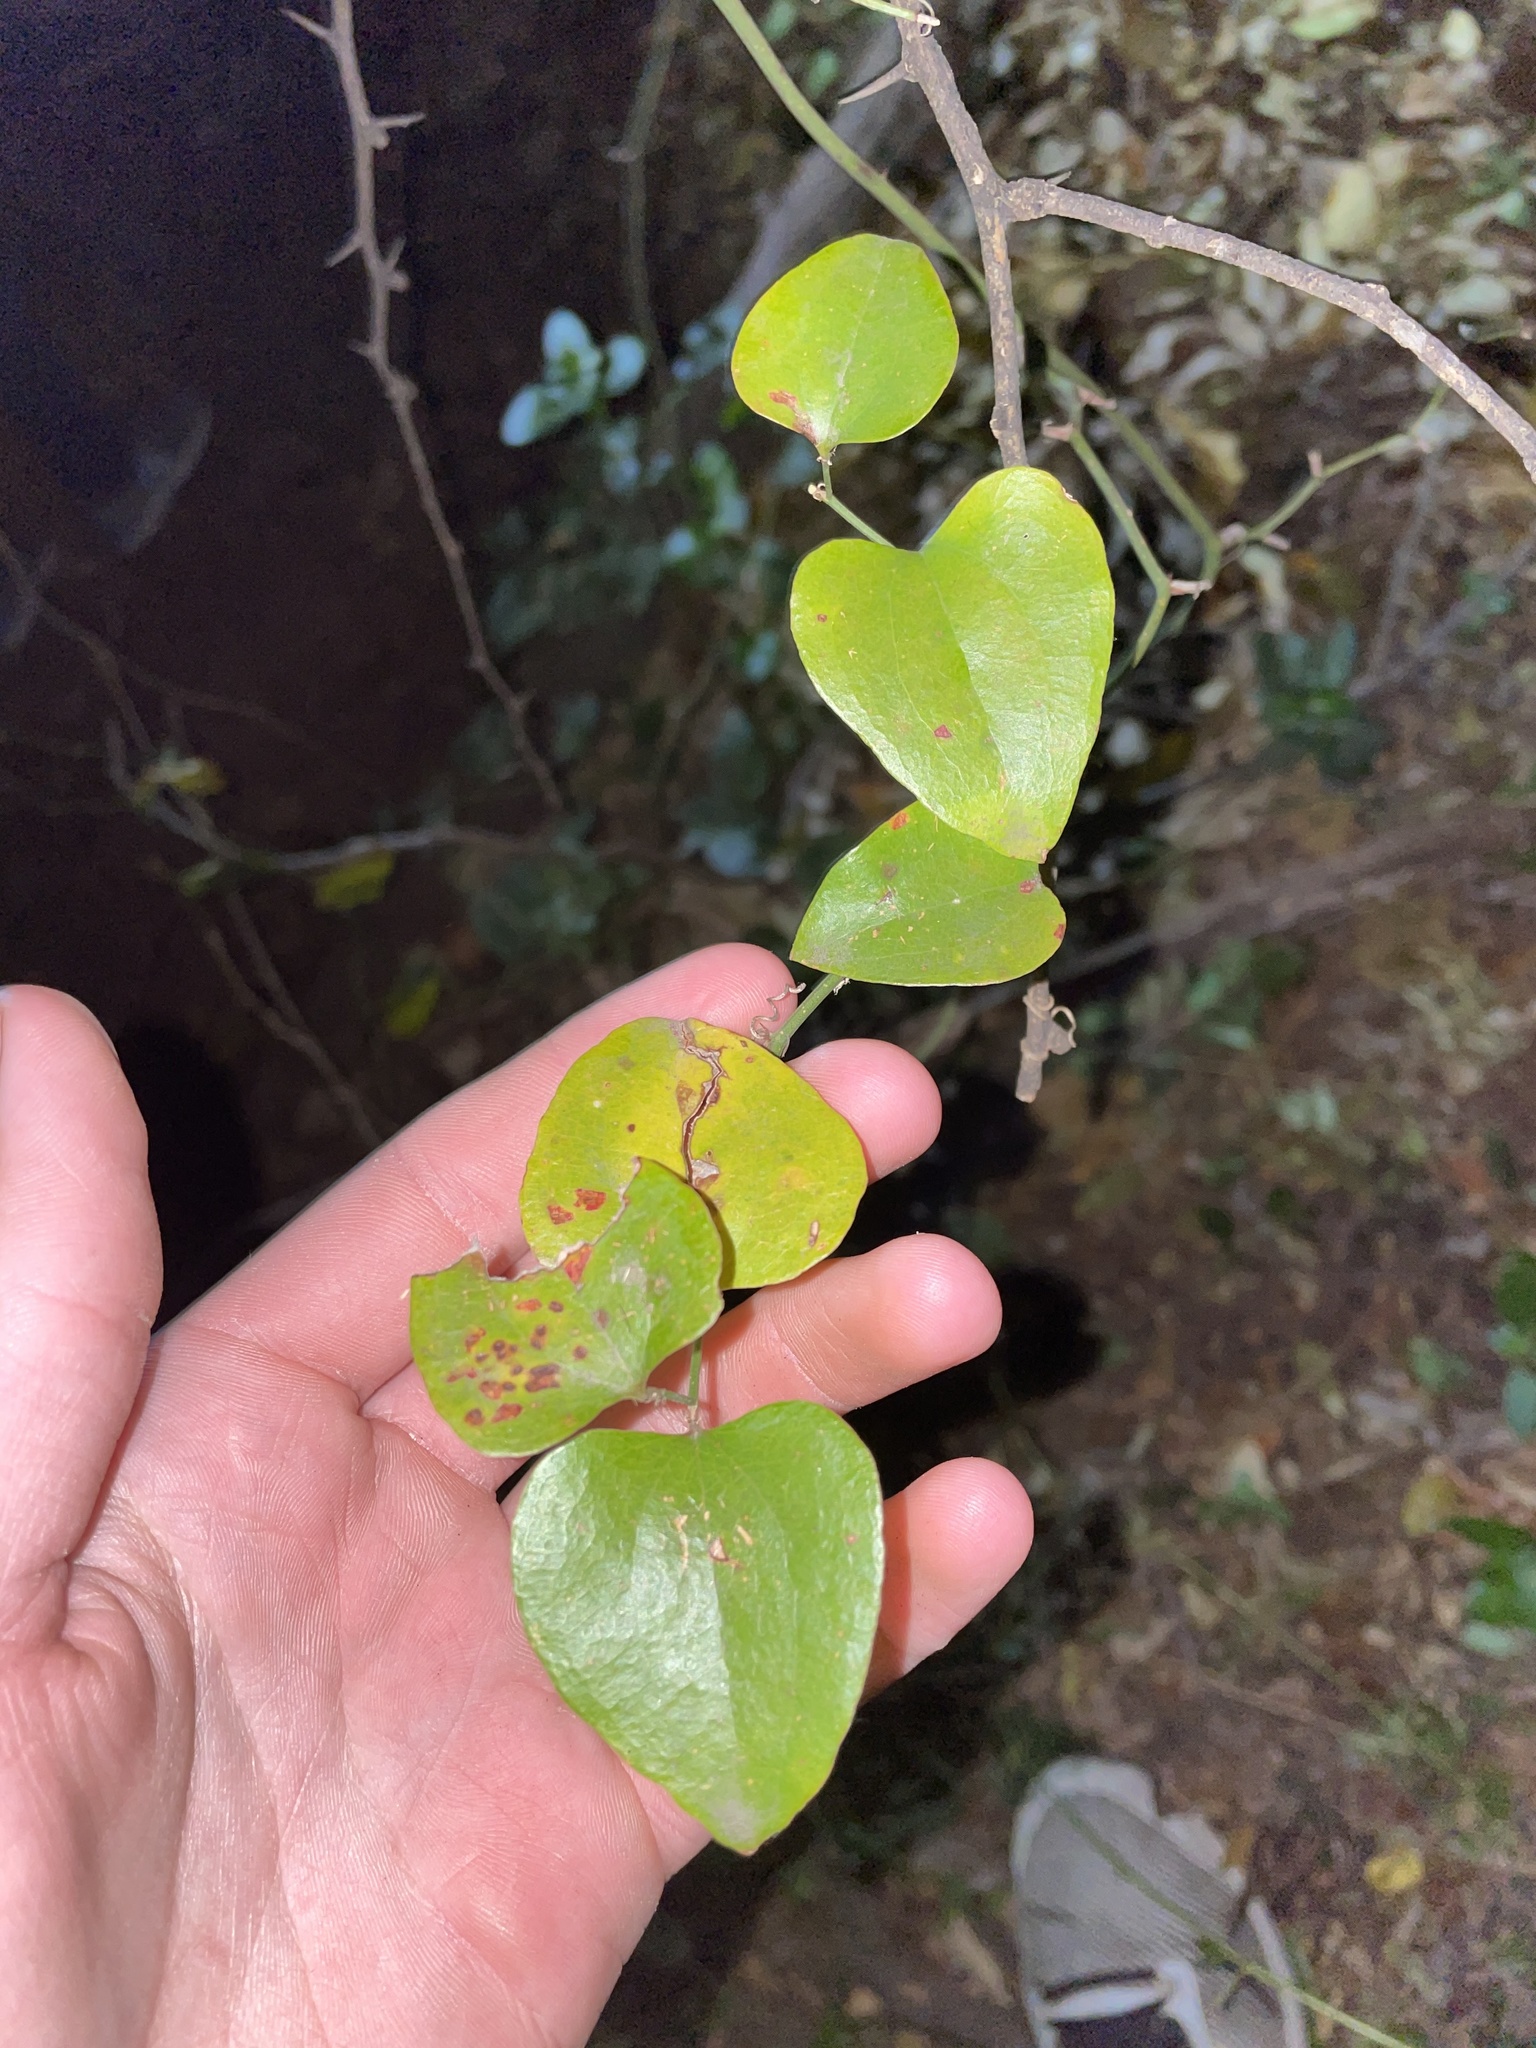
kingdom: Plantae
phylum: Tracheophyta
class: Liliopsida
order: Liliales
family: Smilacaceae
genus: Smilax
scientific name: Smilax bona-nox
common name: Catbrier
